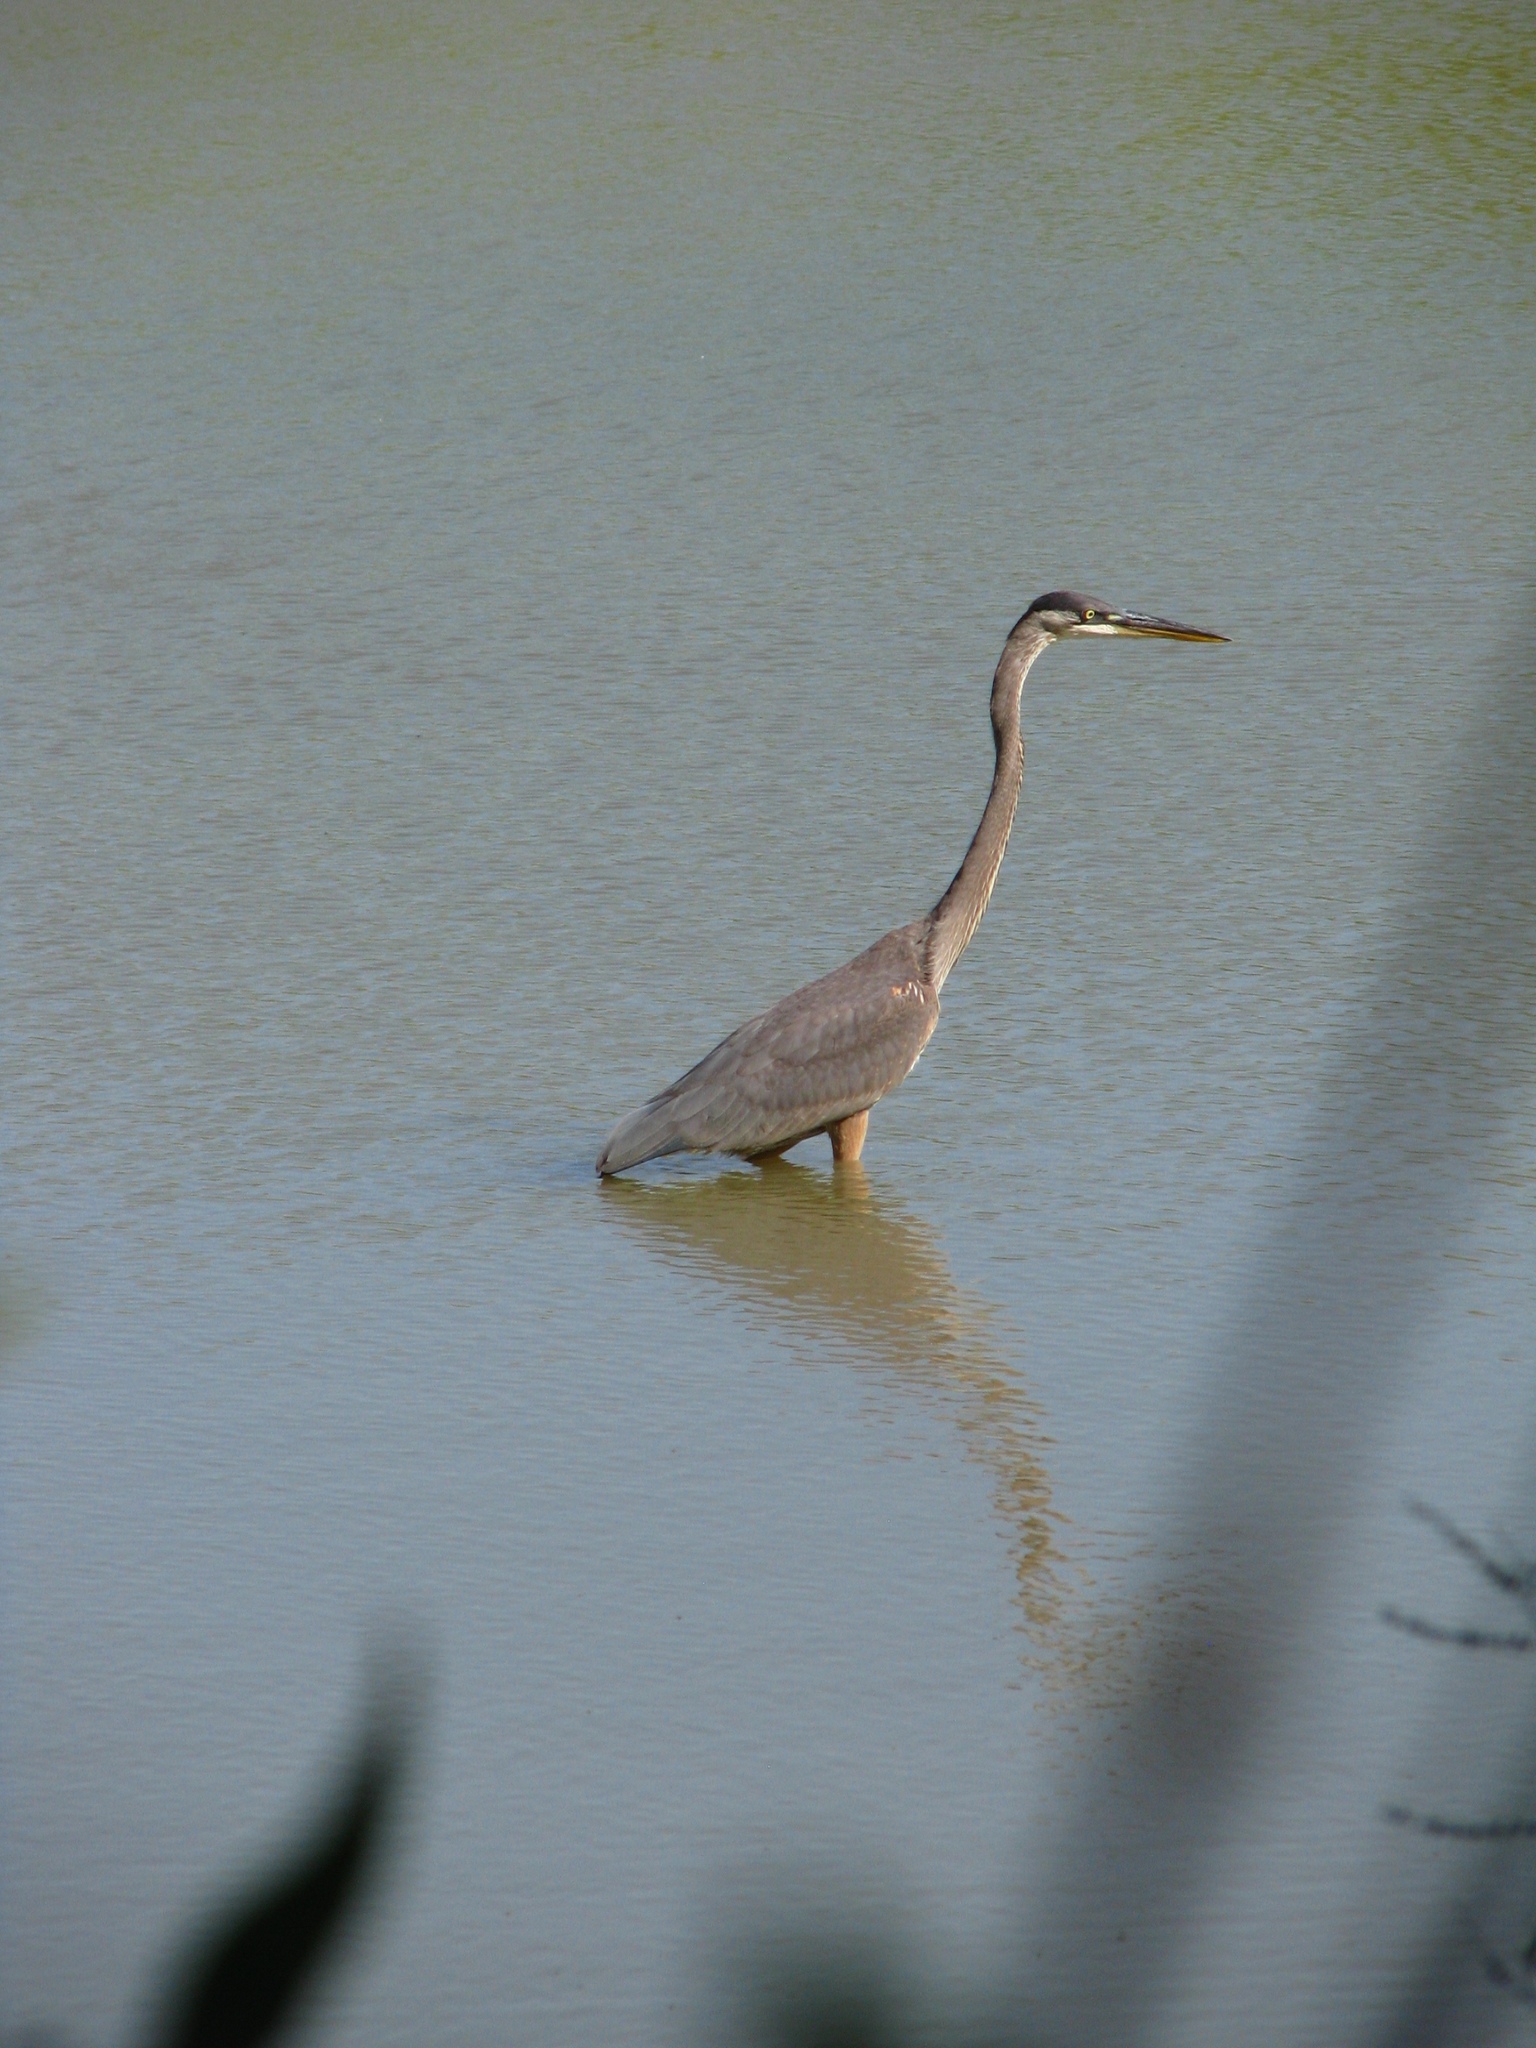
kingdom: Animalia
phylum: Chordata
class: Aves
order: Pelecaniformes
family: Ardeidae
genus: Ardea
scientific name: Ardea herodias
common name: Great blue heron
